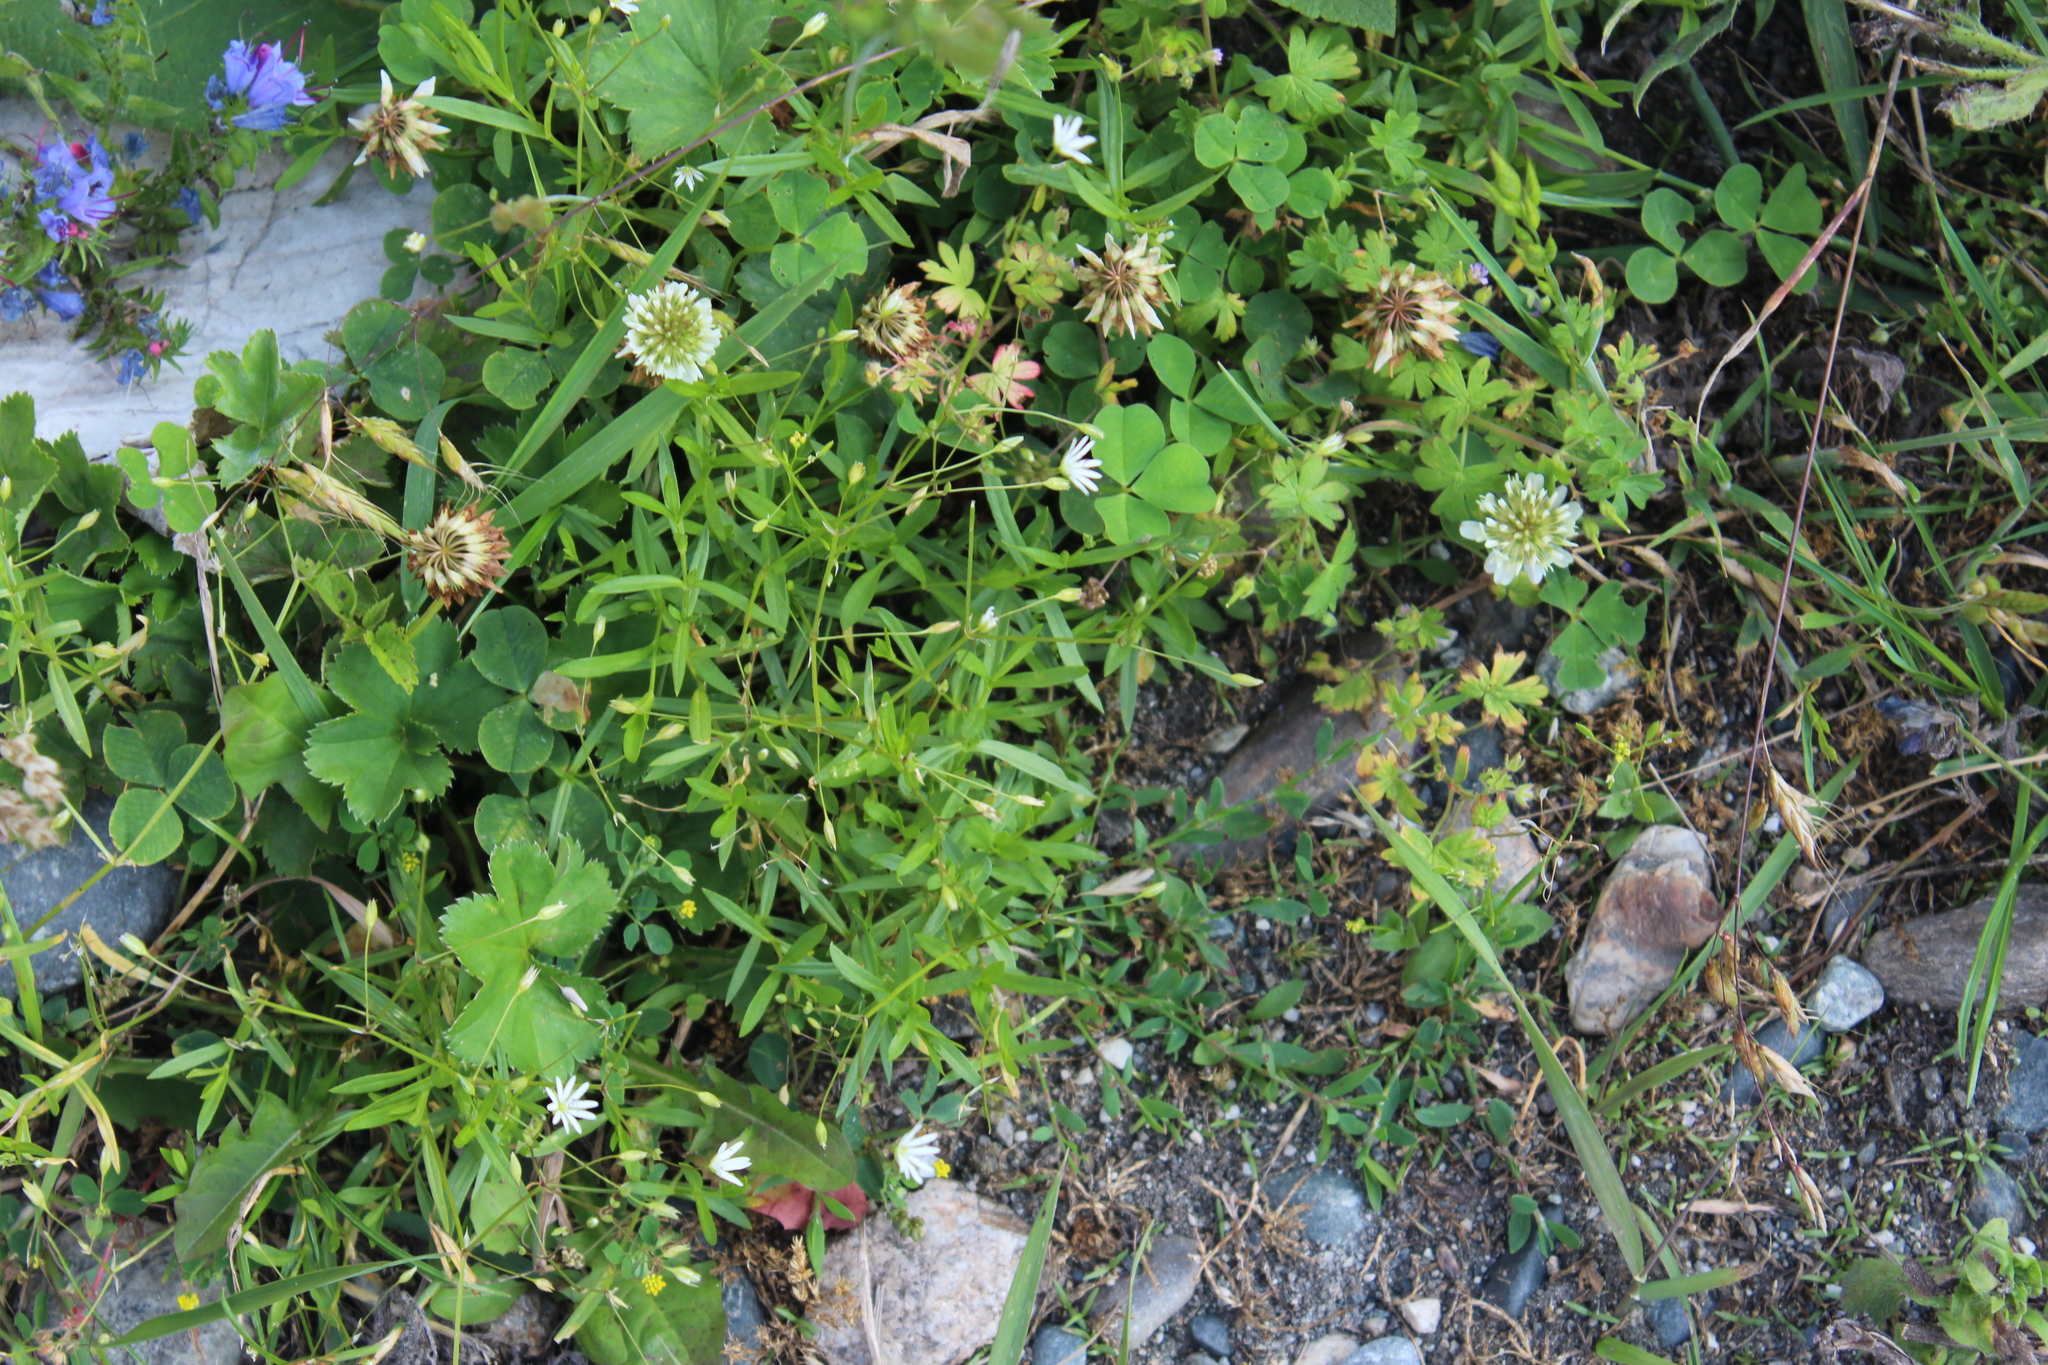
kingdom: Plantae
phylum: Tracheophyta
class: Magnoliopsida
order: Fabales
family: Fabaceae
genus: Trifolium
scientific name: Trifolium repens
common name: White clover
